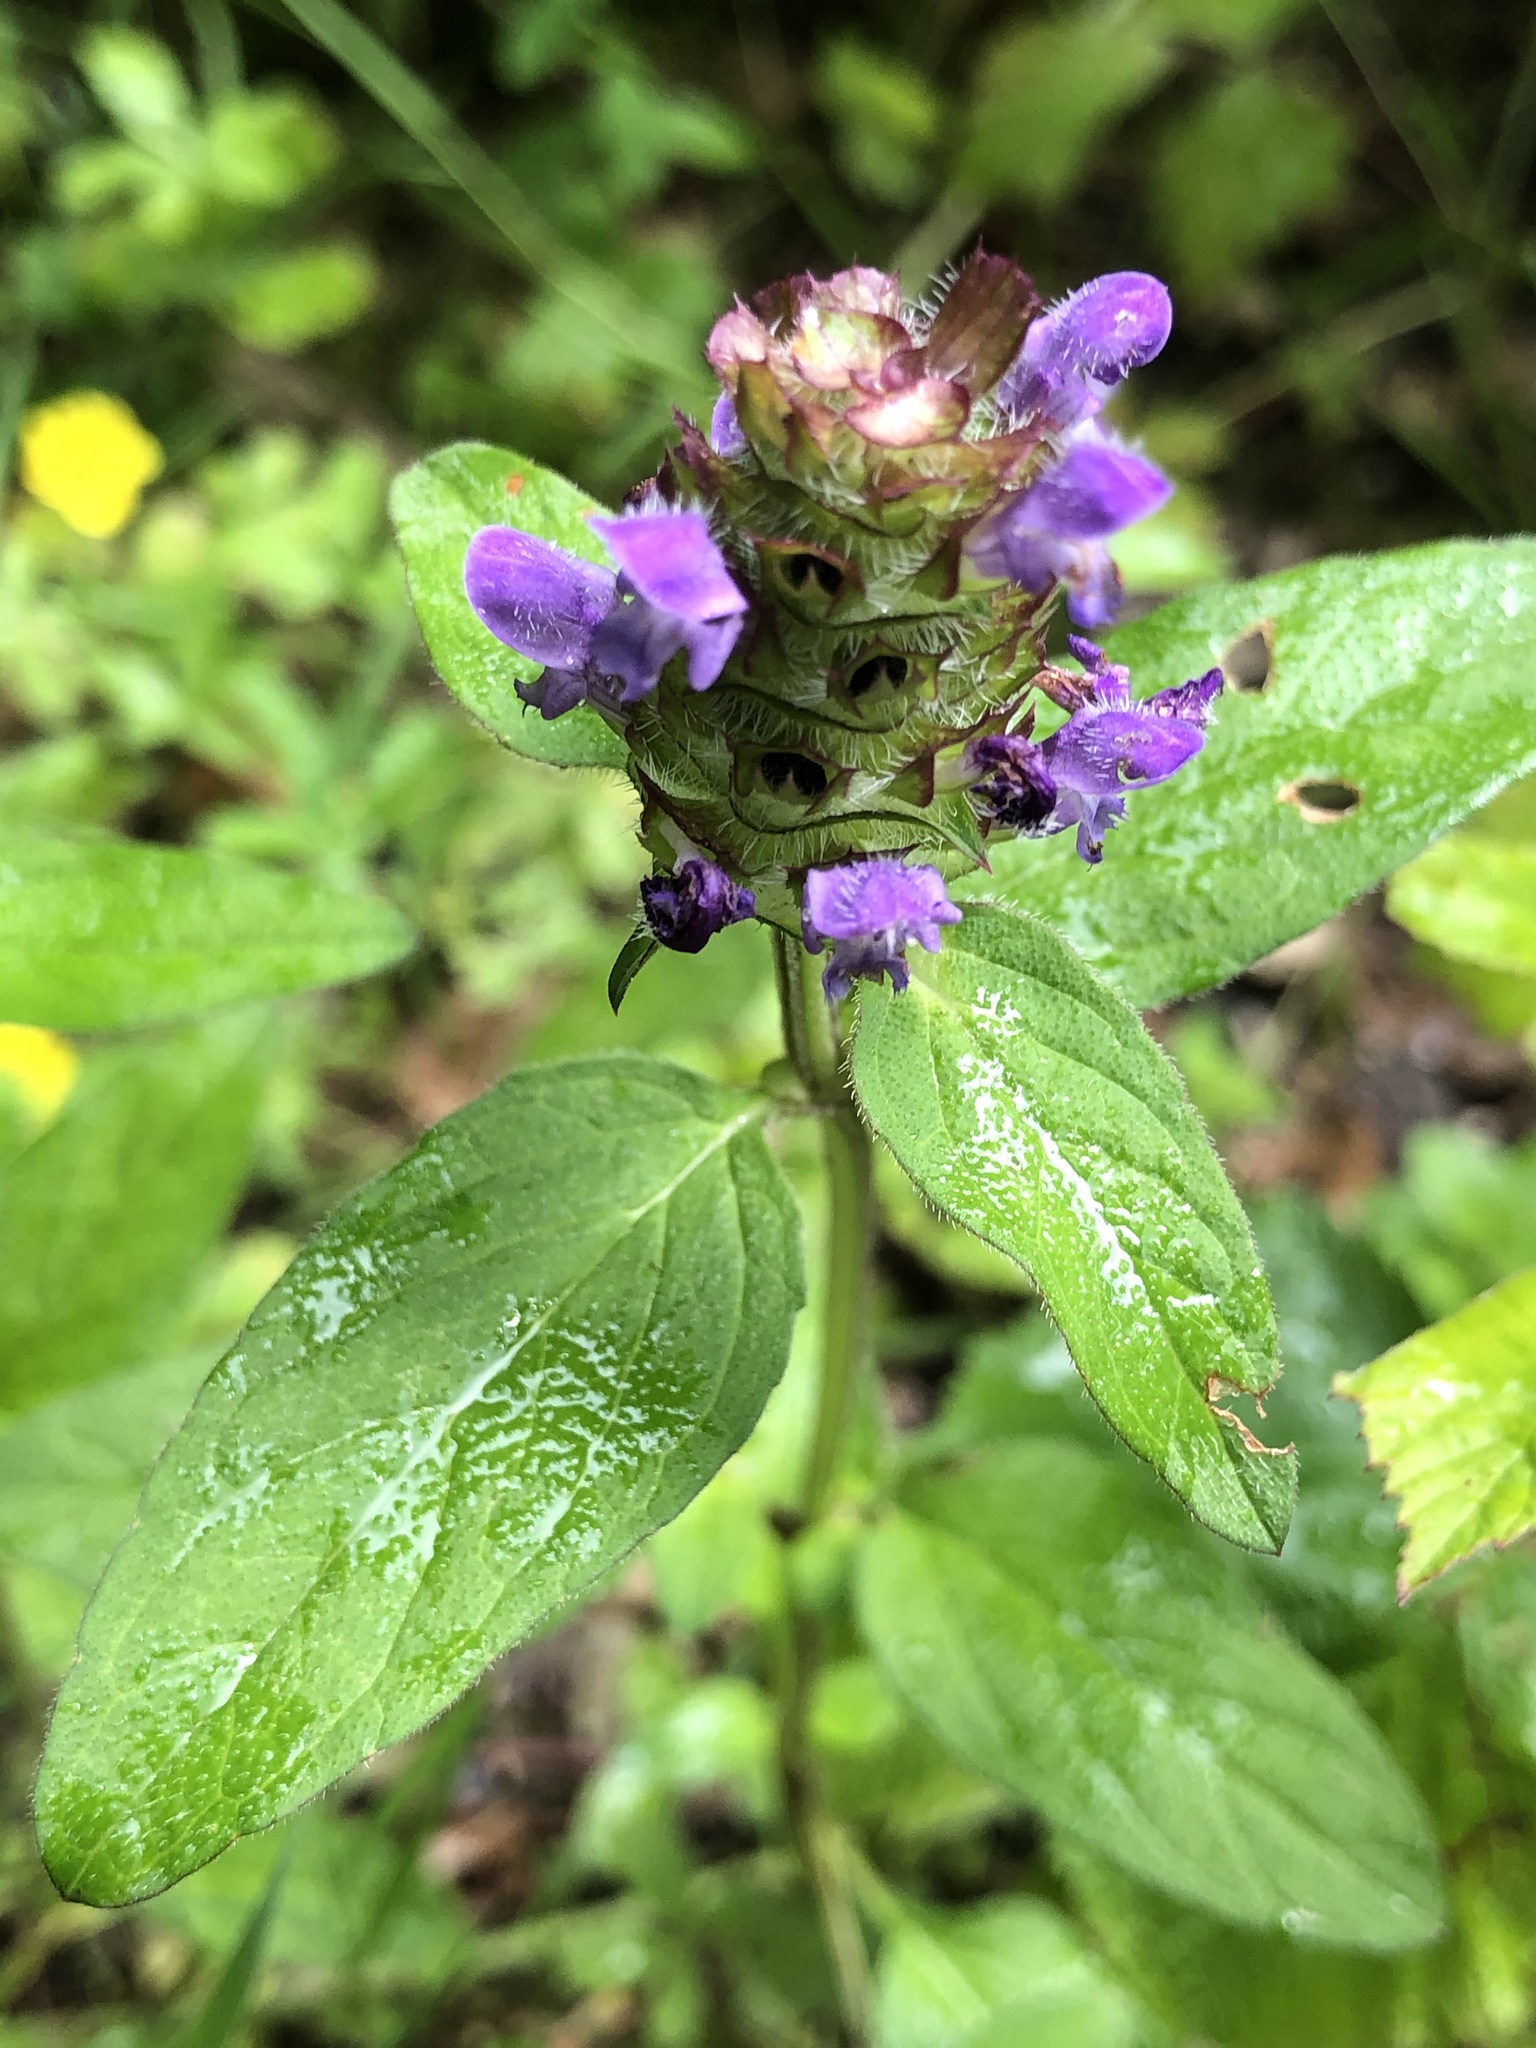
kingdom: Plantae
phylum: Tracheophyta
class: Magnoliopsida
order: Lamiales
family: Lamiaceae
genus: Prunella
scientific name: Prunella vulgaris
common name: Heal-all
